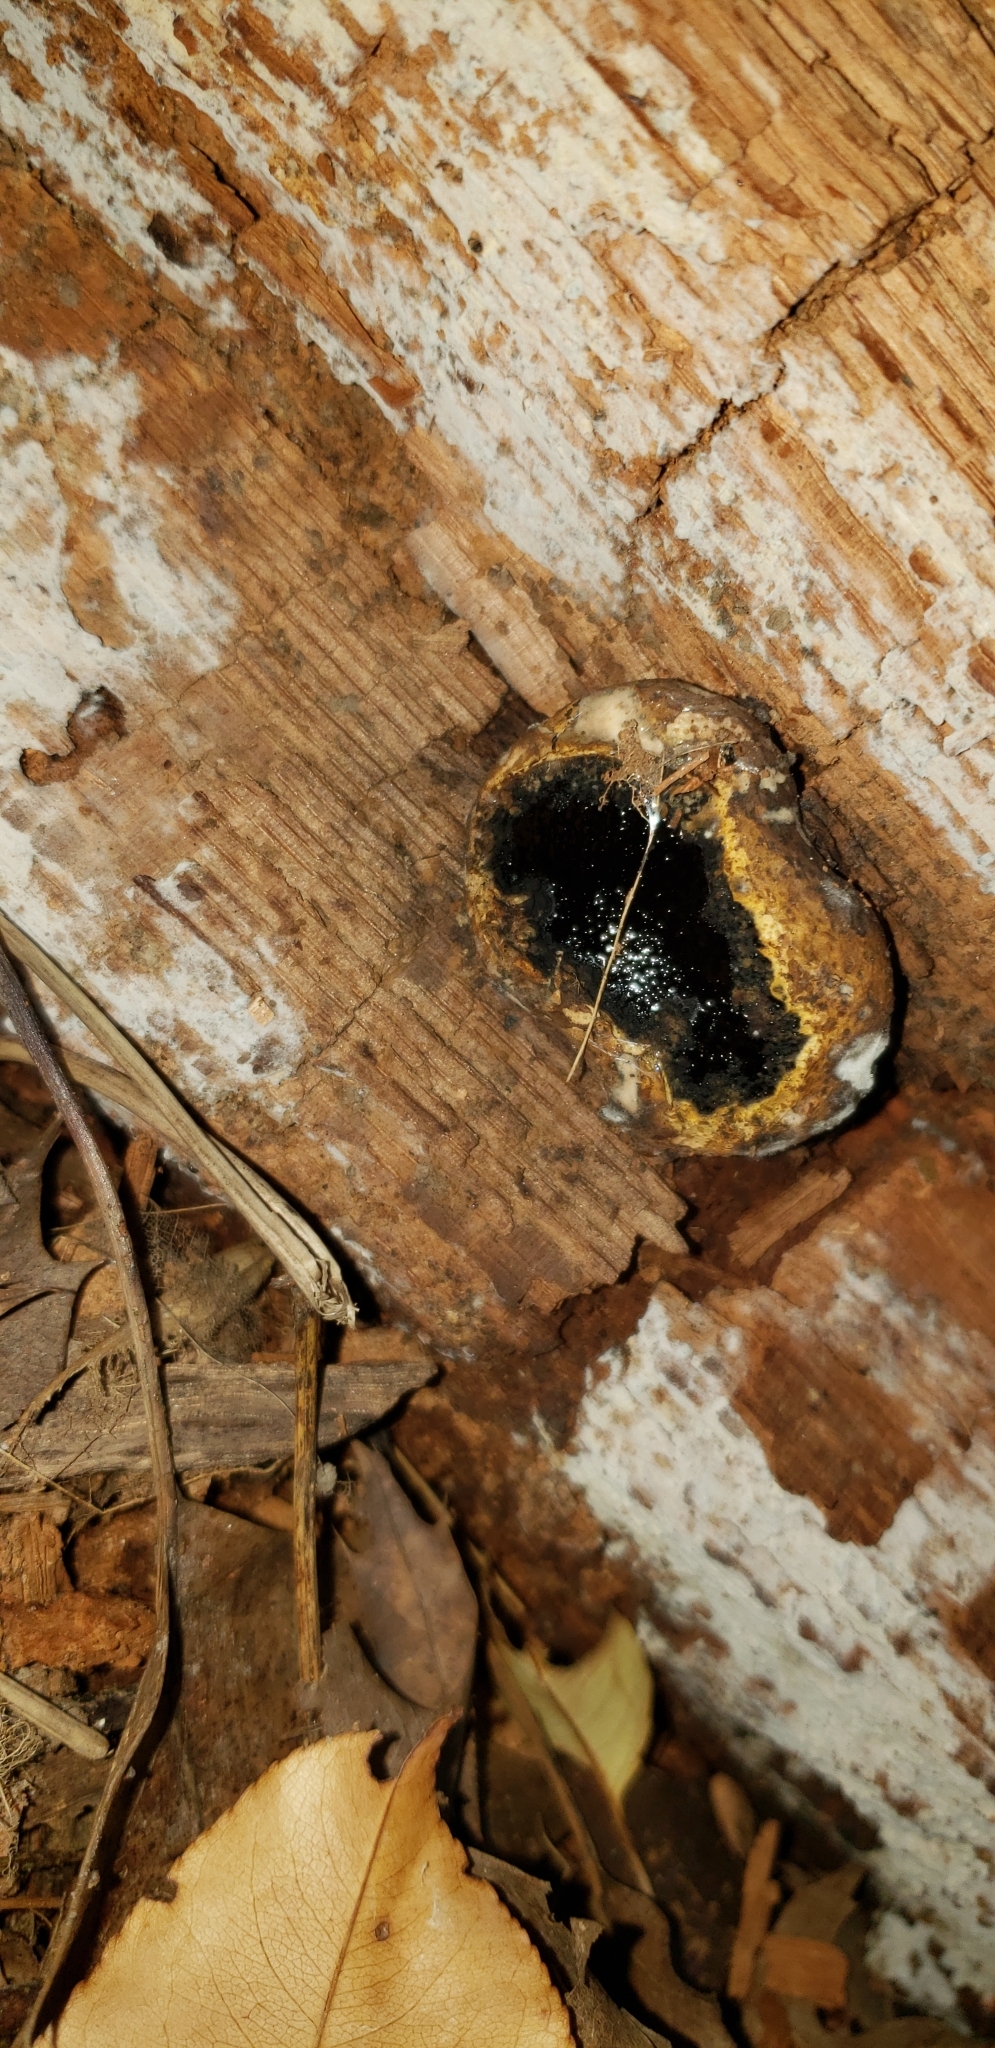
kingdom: Fungi
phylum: Ascomycota
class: Sordariomycetes
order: Boliniales
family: Boliniaceae
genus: Camarops
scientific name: Camarops petersii
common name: Dog's nose fungus
